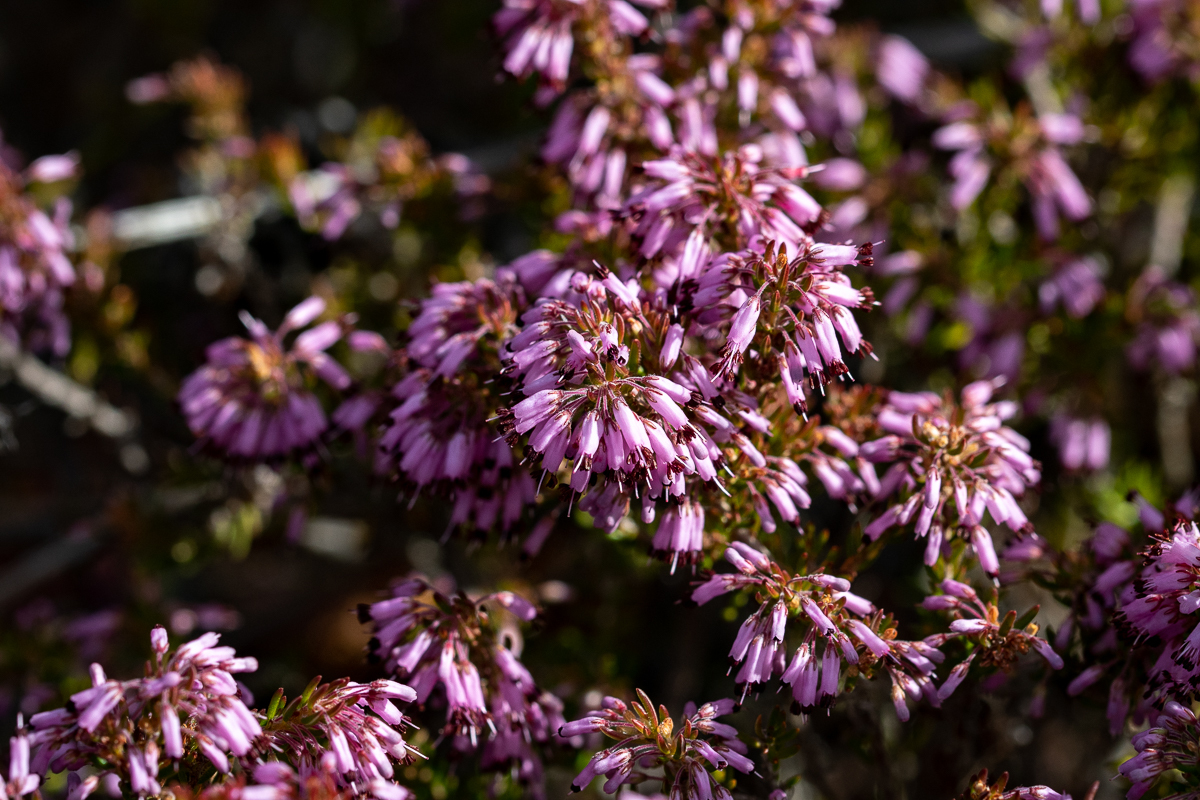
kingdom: Plantae
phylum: Tracheophyta
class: Magnoliopsida
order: Ericales
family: Ericaceae
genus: Erica
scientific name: Erica nudiflora
